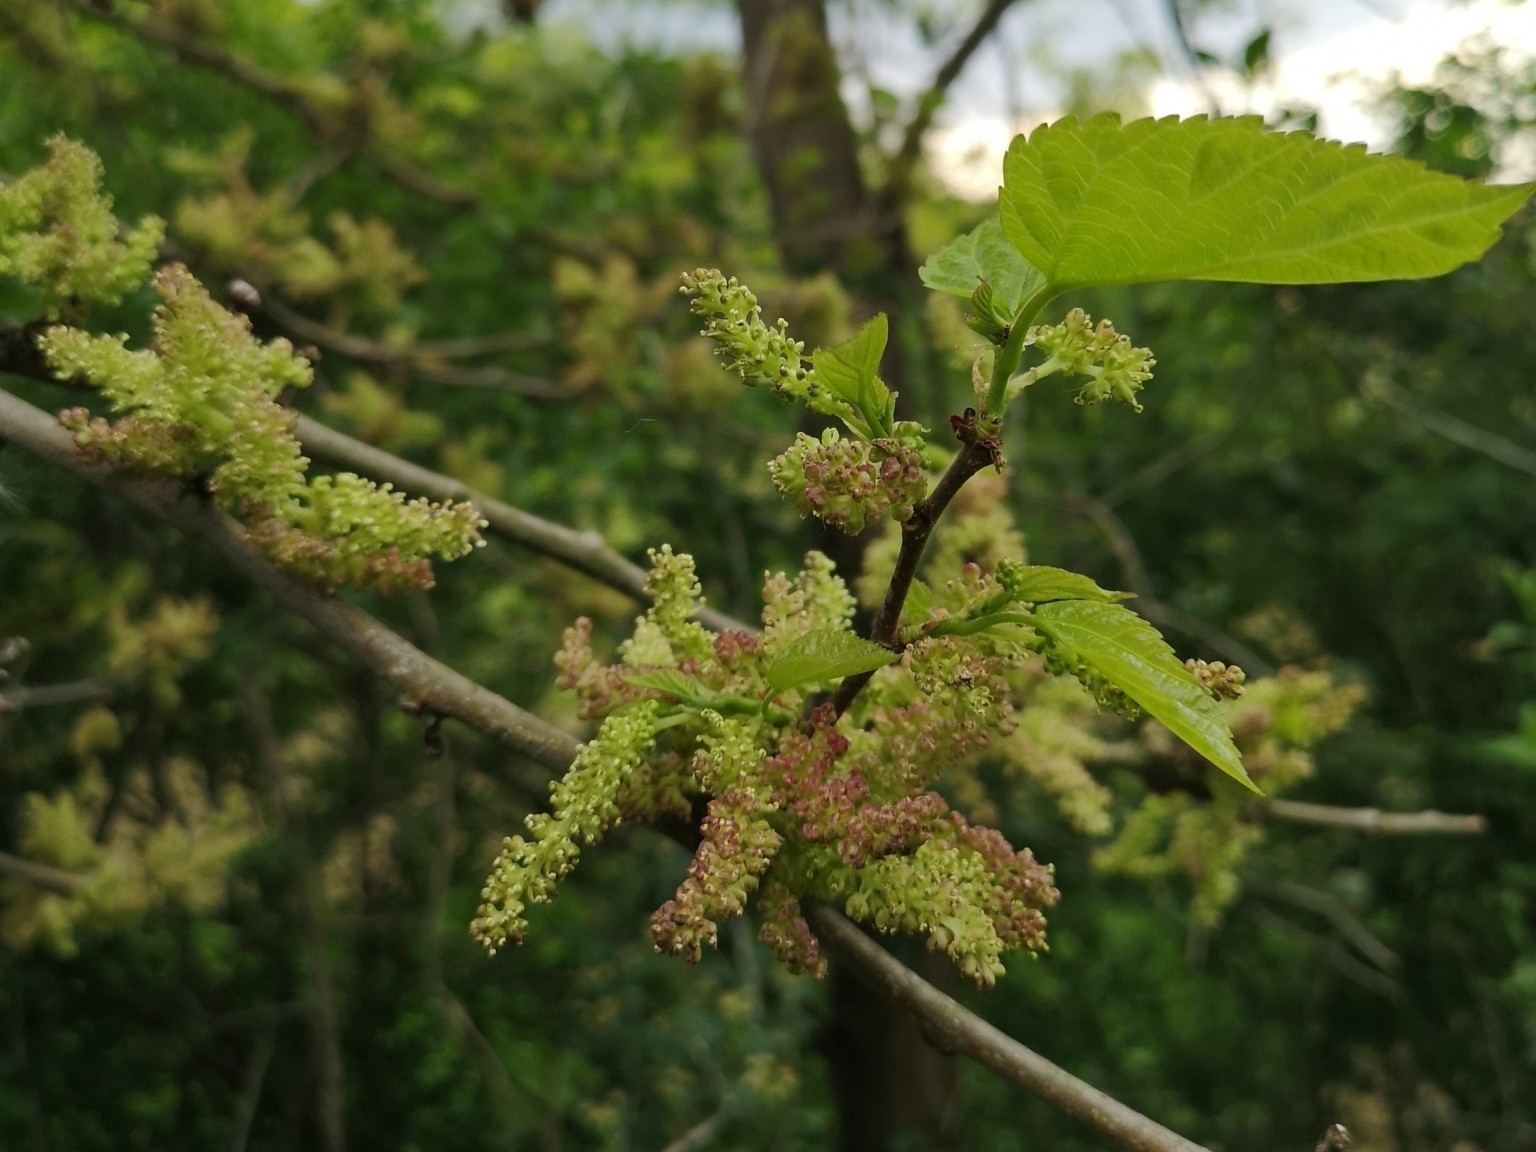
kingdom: Plantae
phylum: Tracheophyta
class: Magnoliopsida
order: Rosales
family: Moraceae
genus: Morus
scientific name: Morus alba
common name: White mulberry
